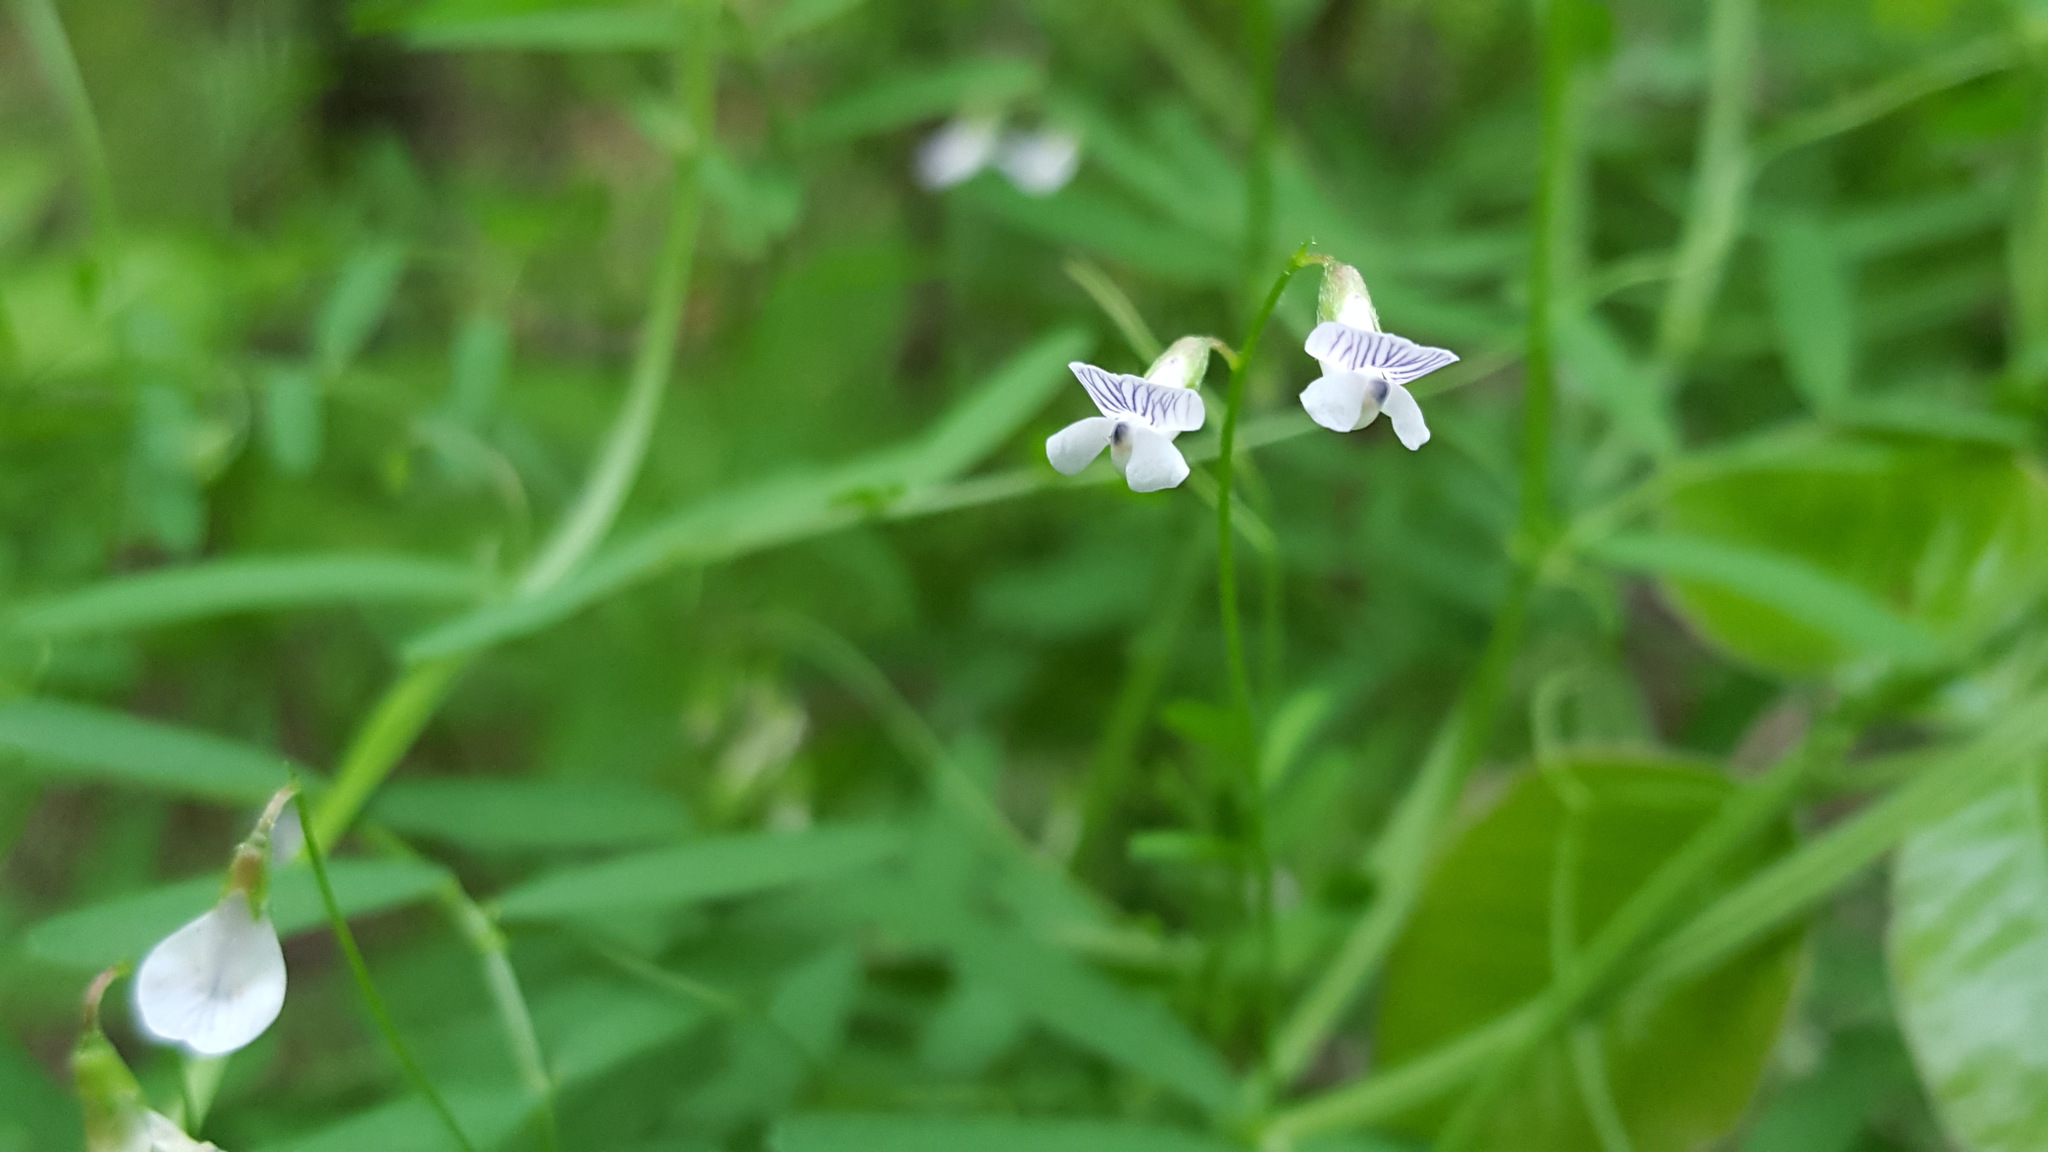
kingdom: Plantae
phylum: Tracheophyta
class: Magnoliopsida
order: Fabales
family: Fabaceae
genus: Vicia
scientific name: Vicia tetrasperma
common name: Smooth tare
